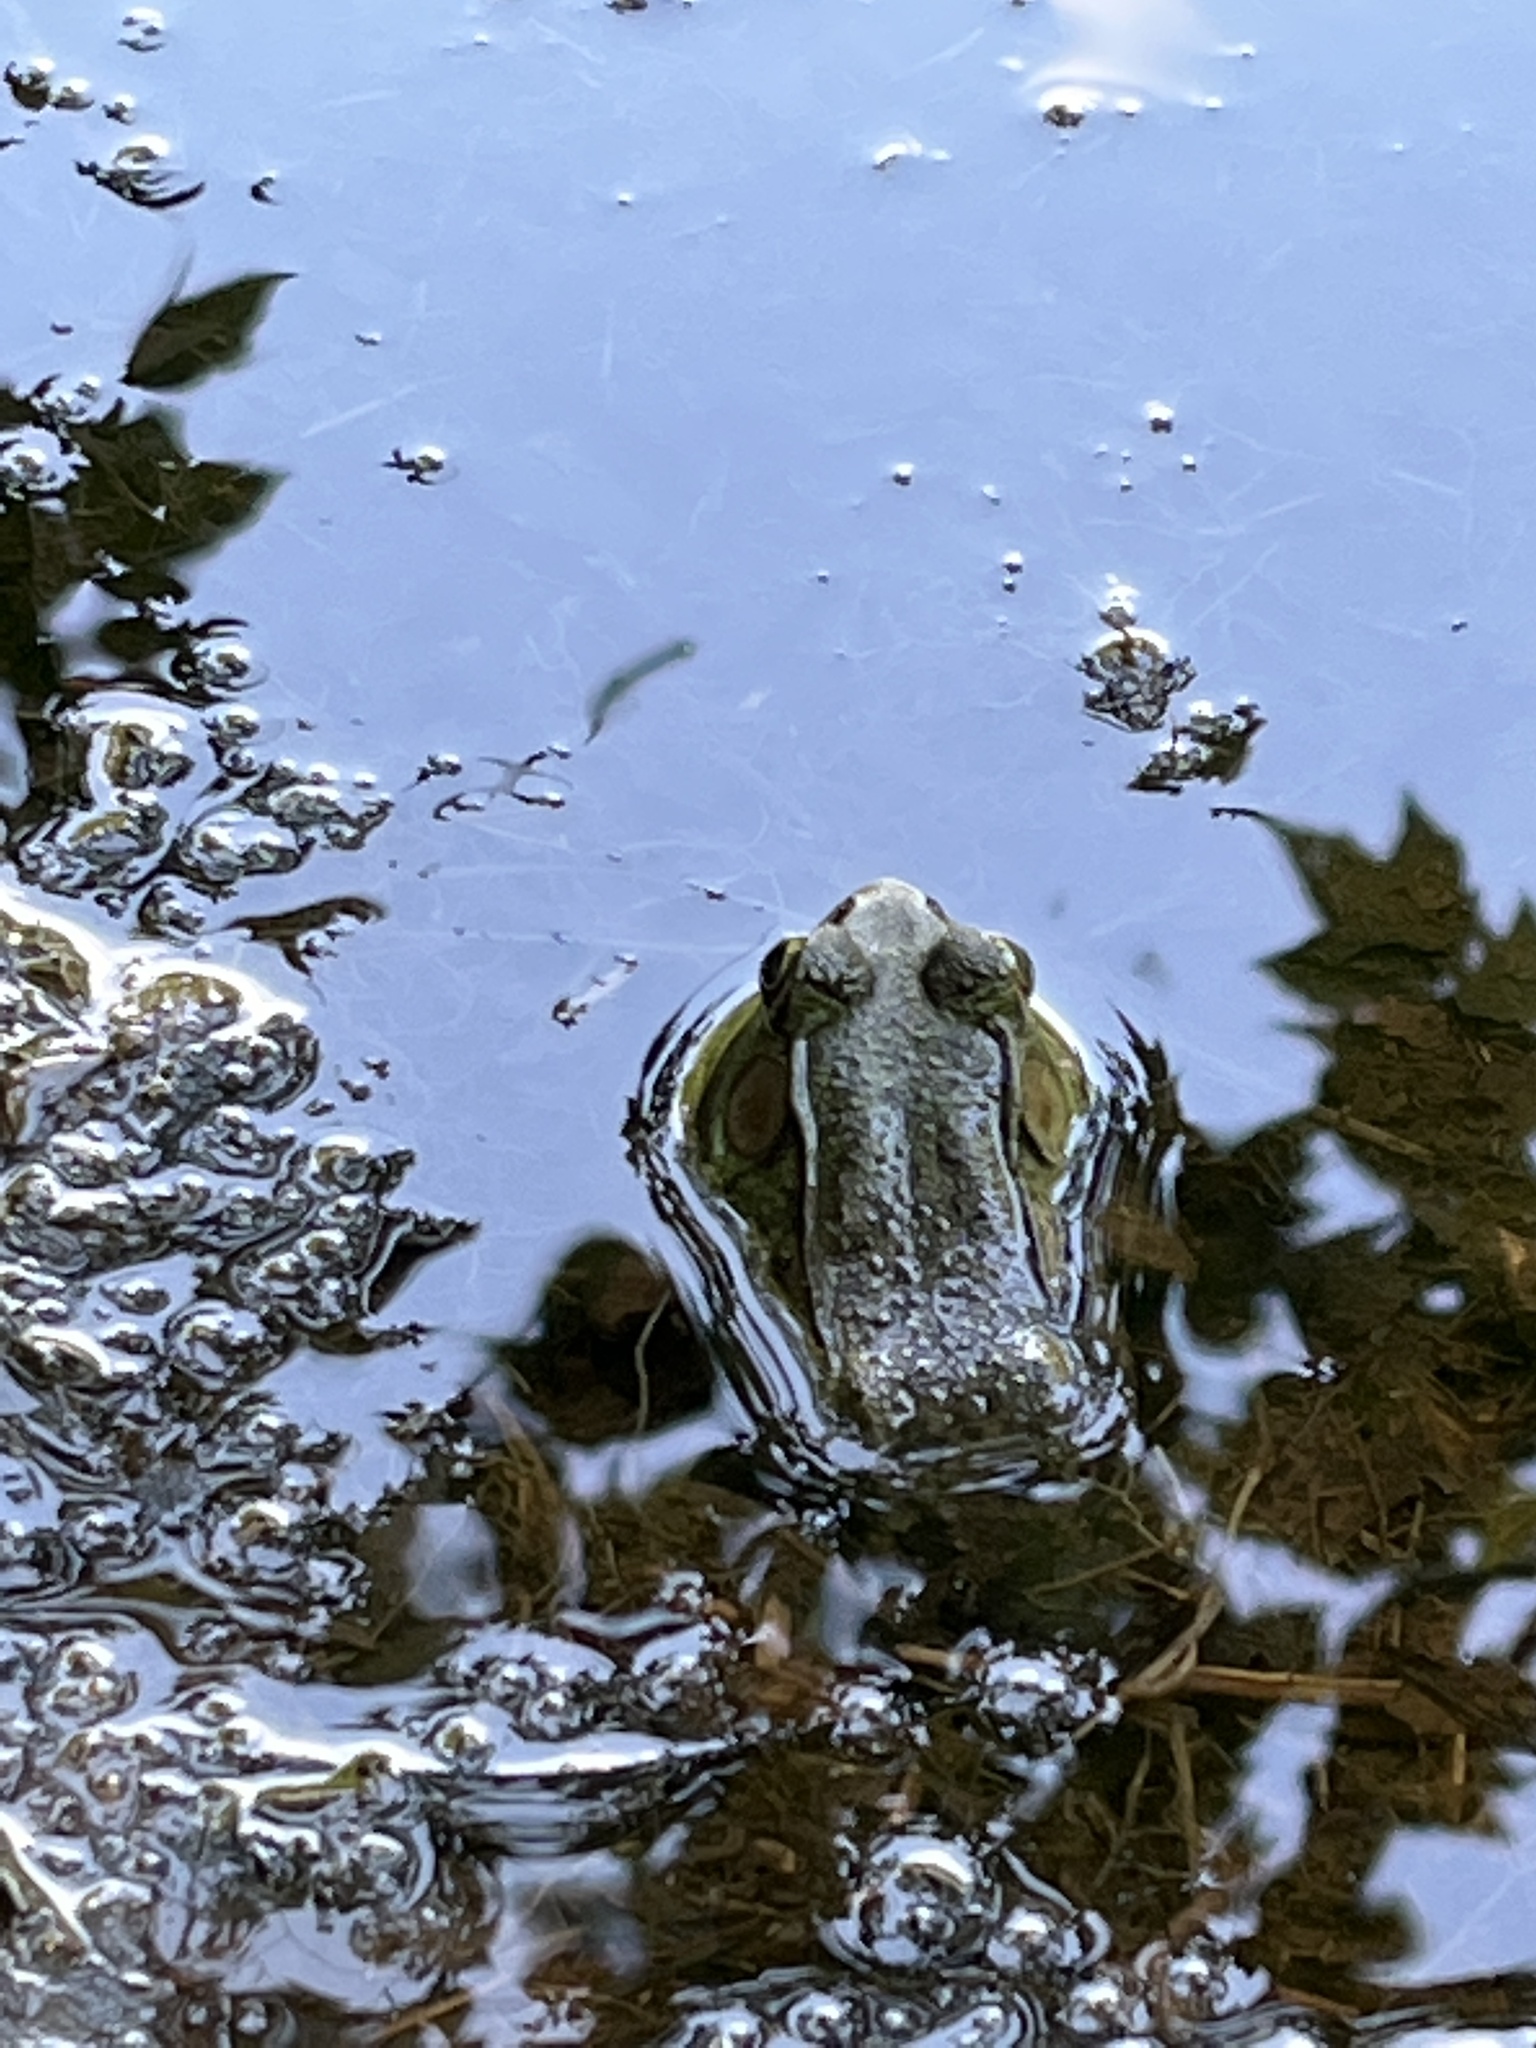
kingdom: Animalia
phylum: Chordata
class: Amphibia
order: Anura
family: Ranidae
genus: Lithobates
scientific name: Lithobates clamitans
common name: Green frog
